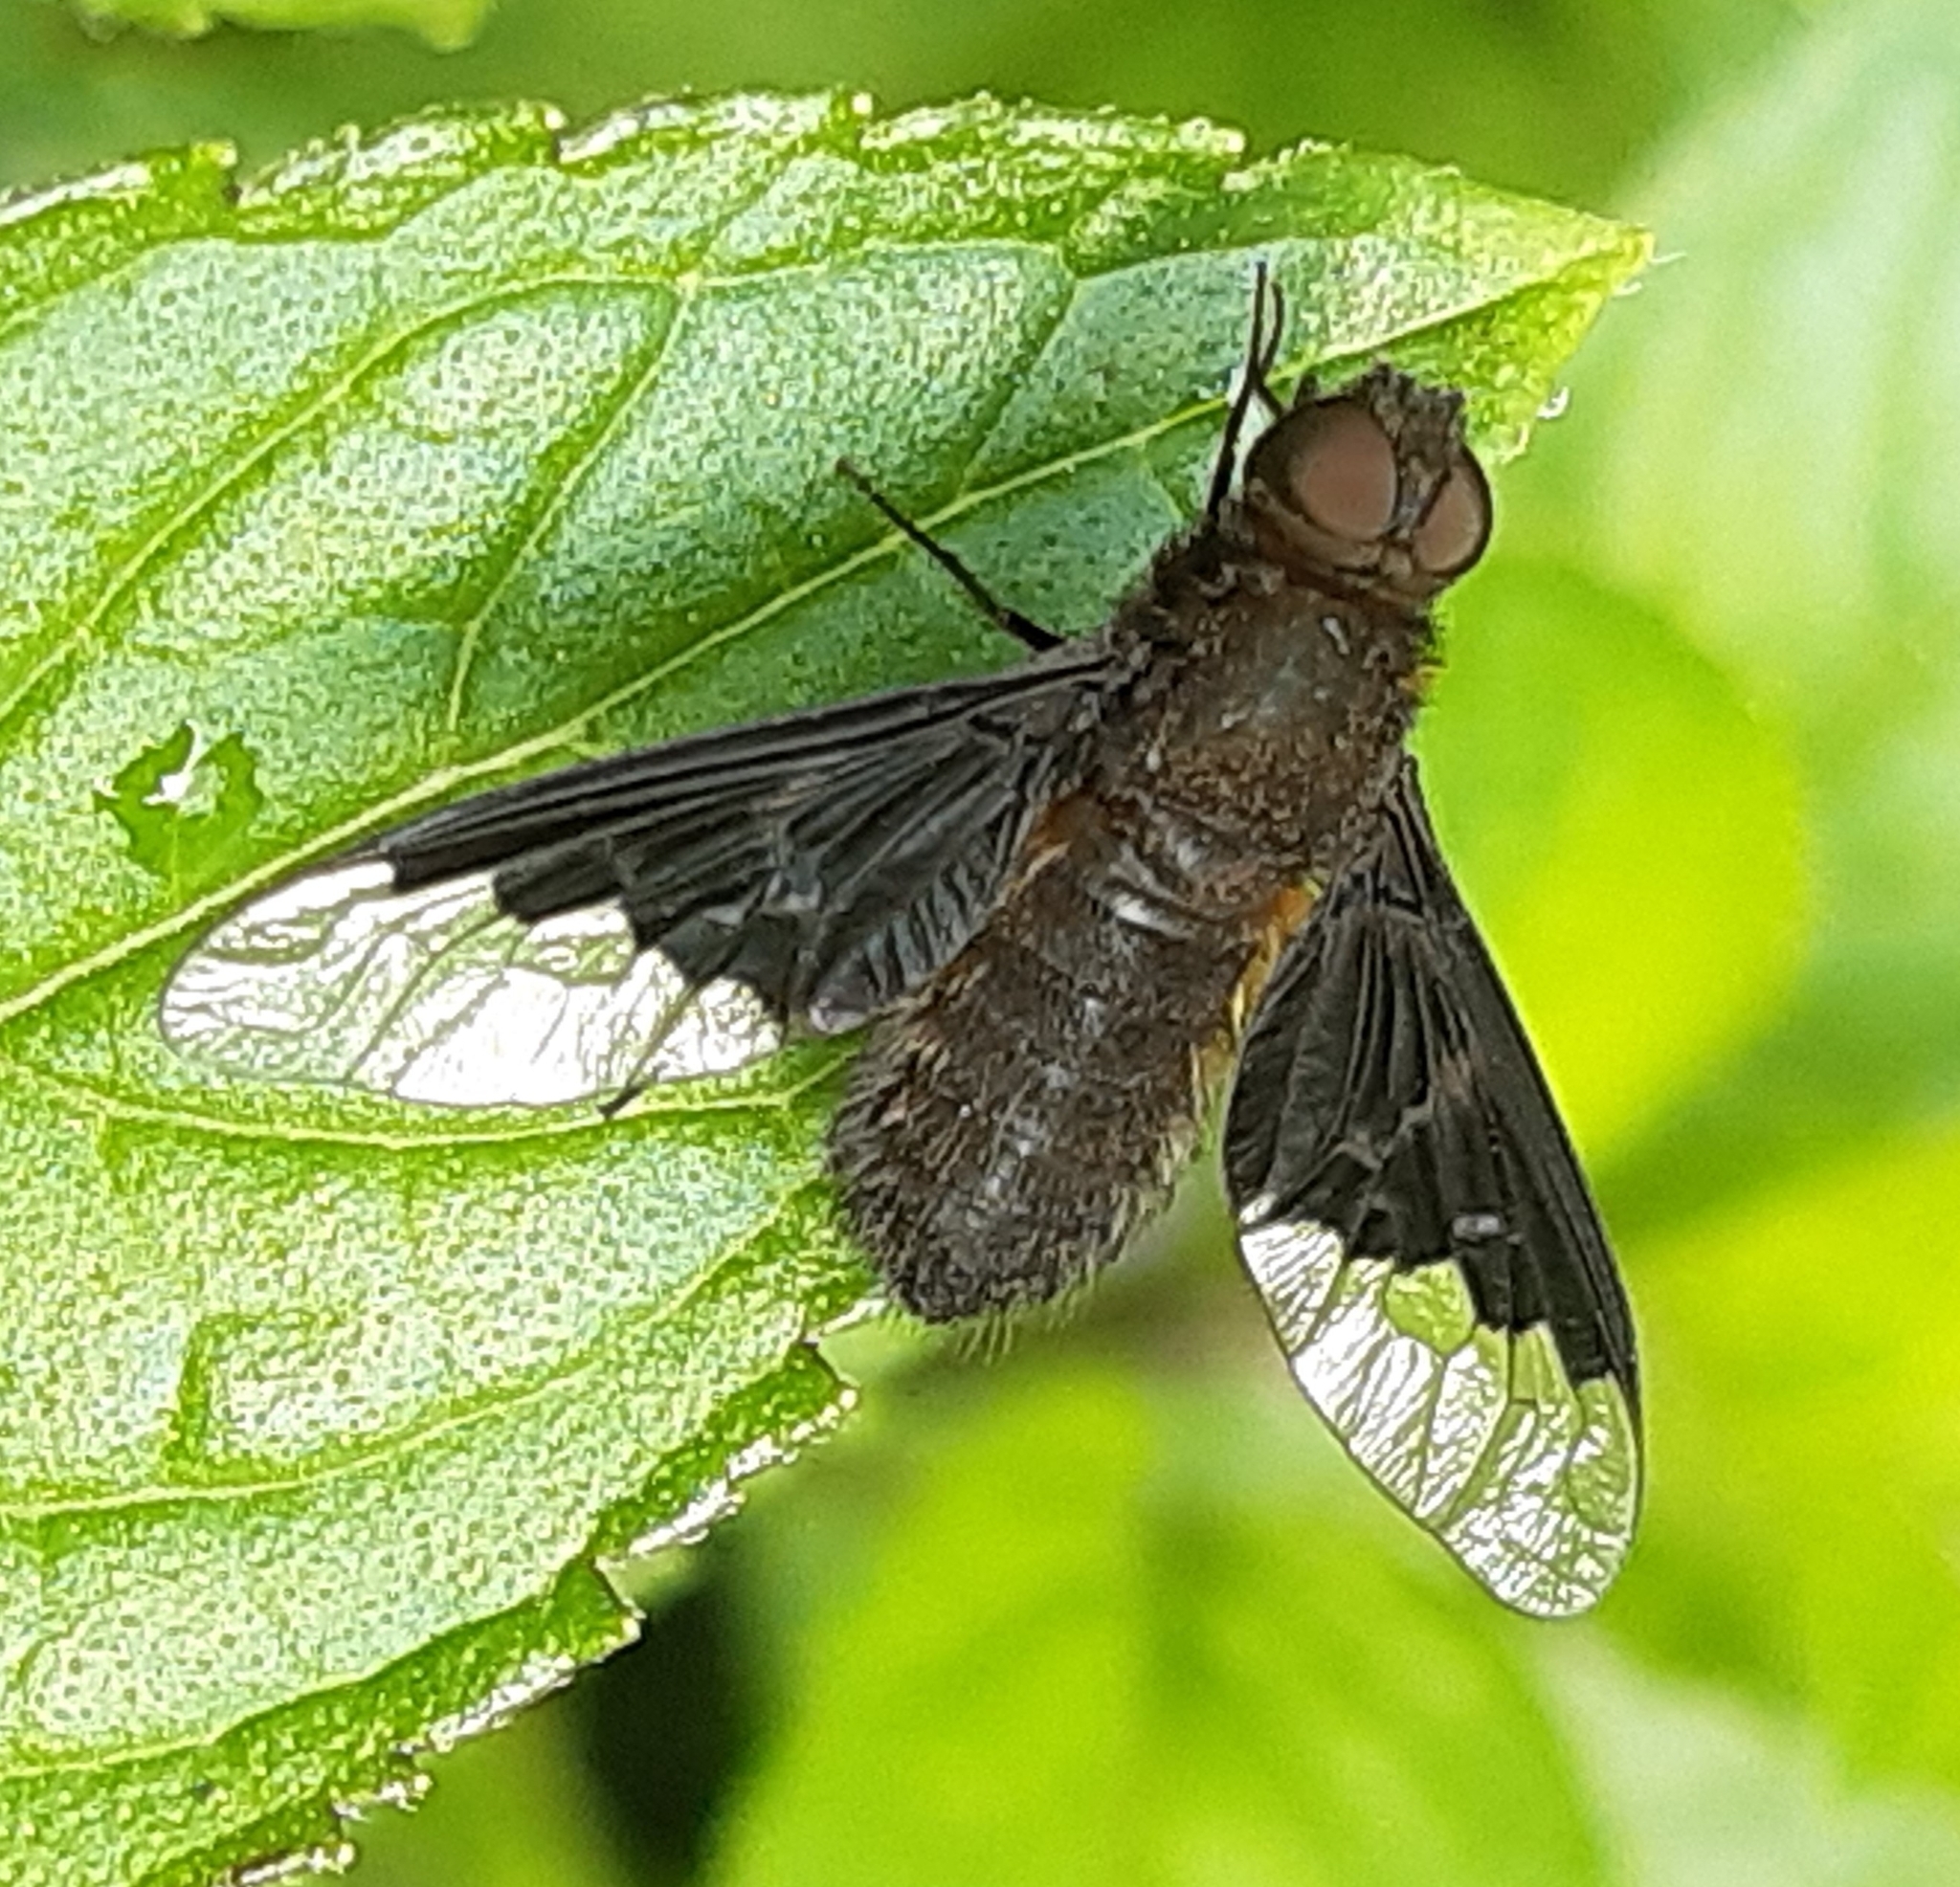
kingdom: Animalia
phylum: Arthropoda
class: Insecta
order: Diptera
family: Bombyliidae
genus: Hemipenthes
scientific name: Hemipenthes morio
